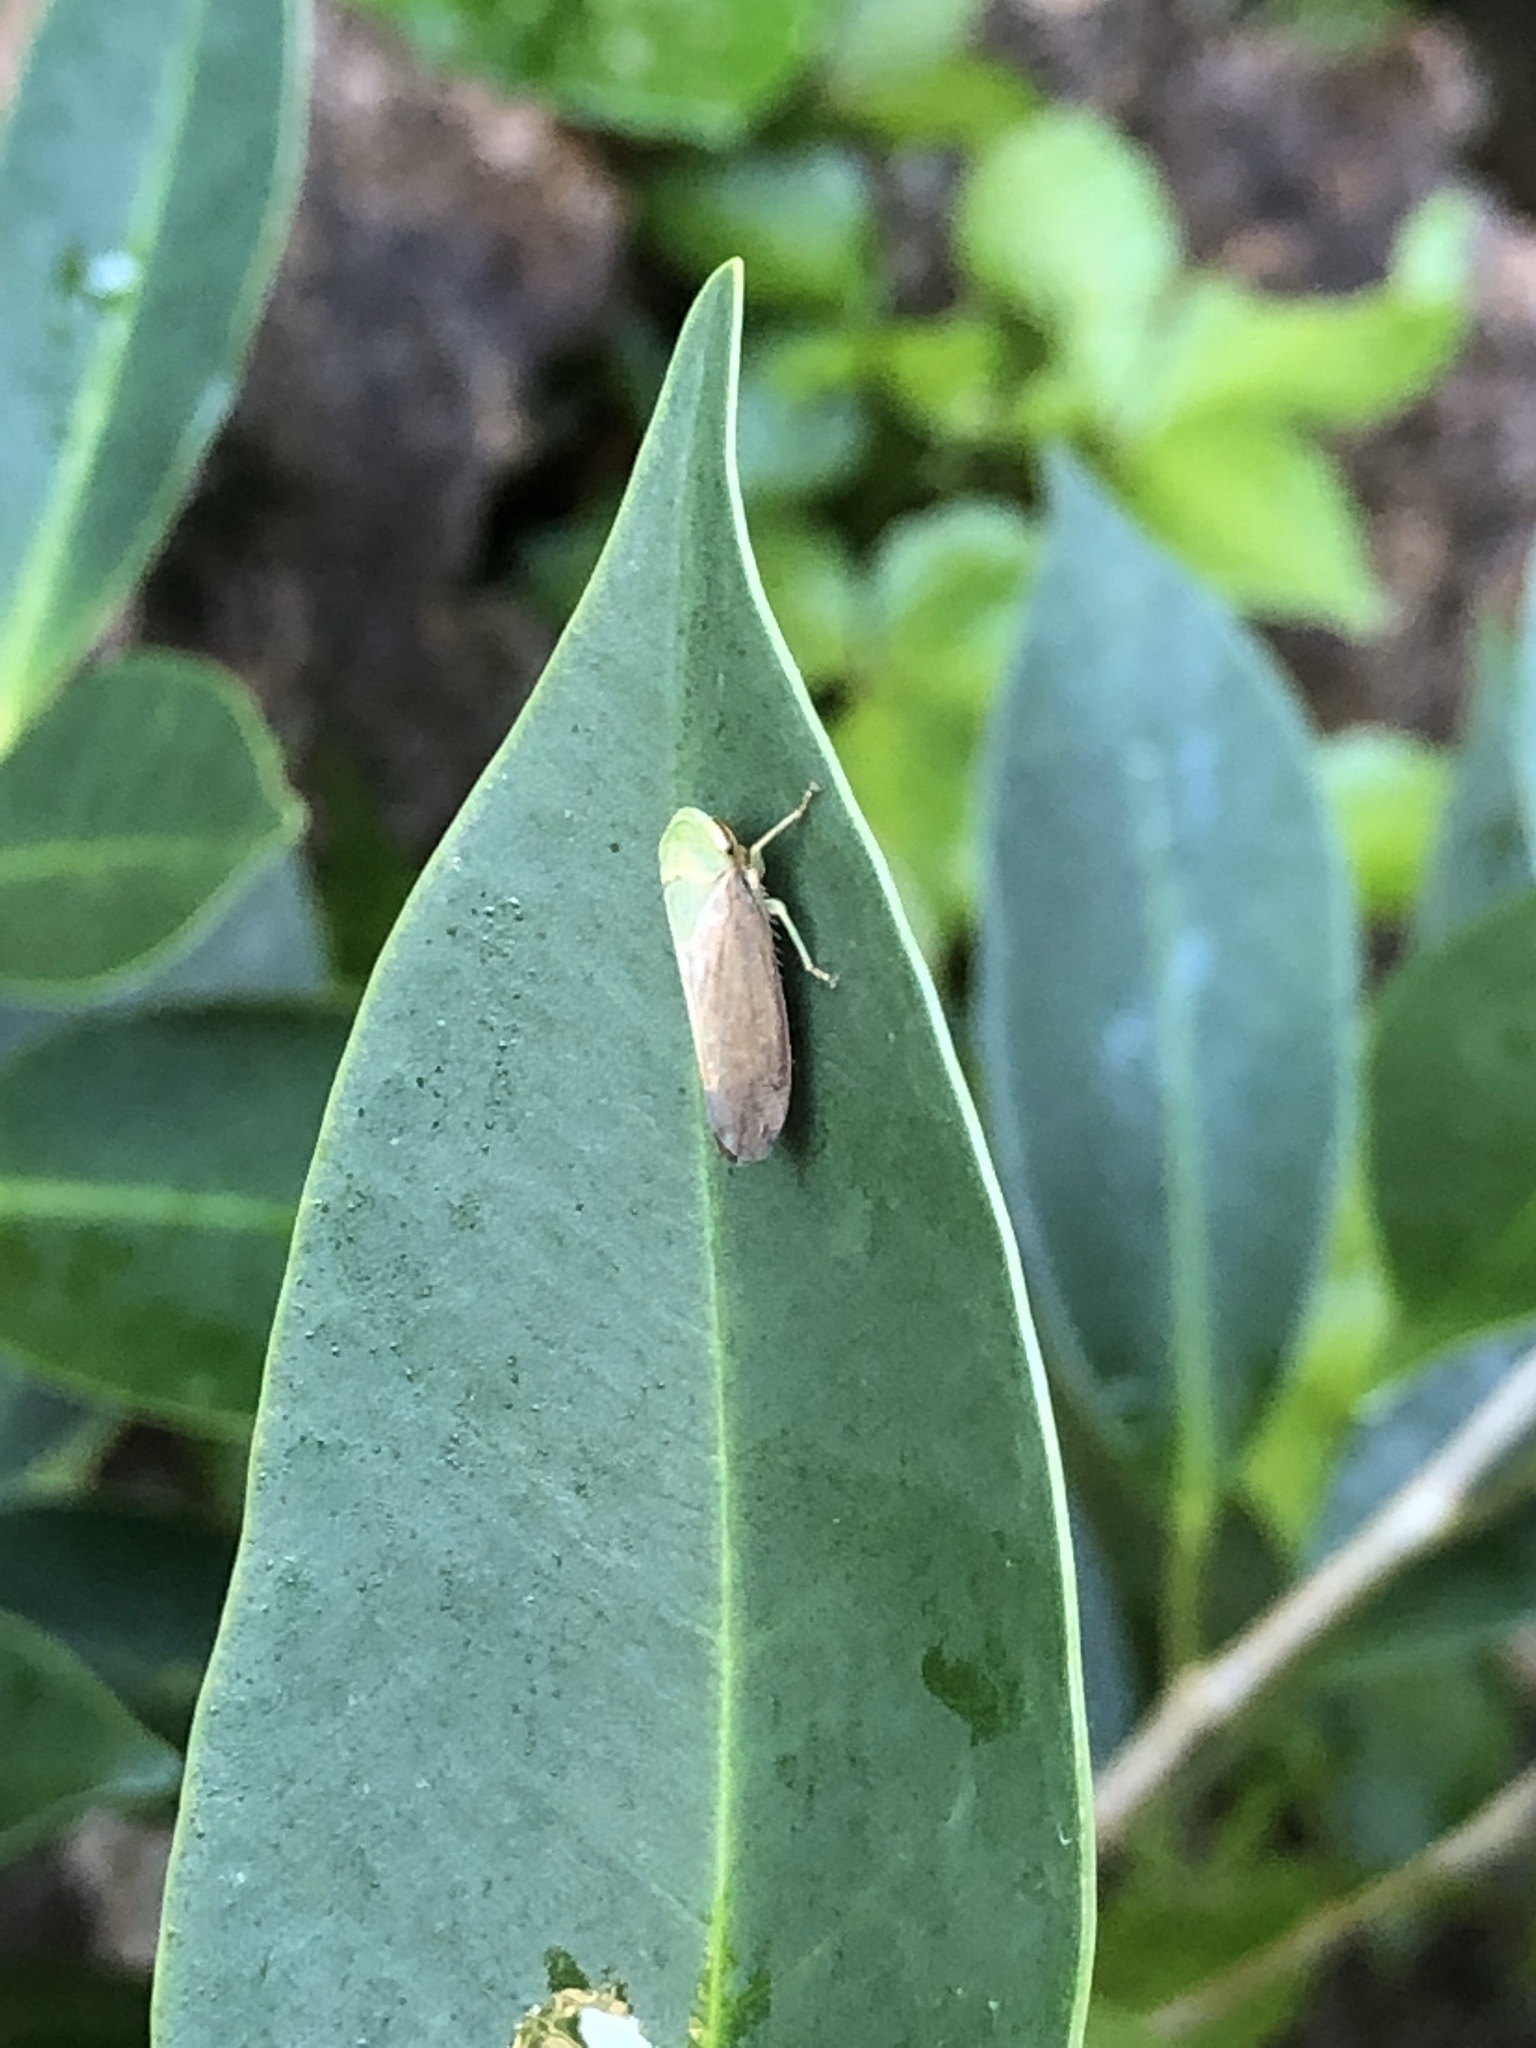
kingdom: Animalia
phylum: Arthropoda
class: Insecta
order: Hemiptera
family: Cicadellidae
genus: Tartessus
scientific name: Tartessus ferrugineus
